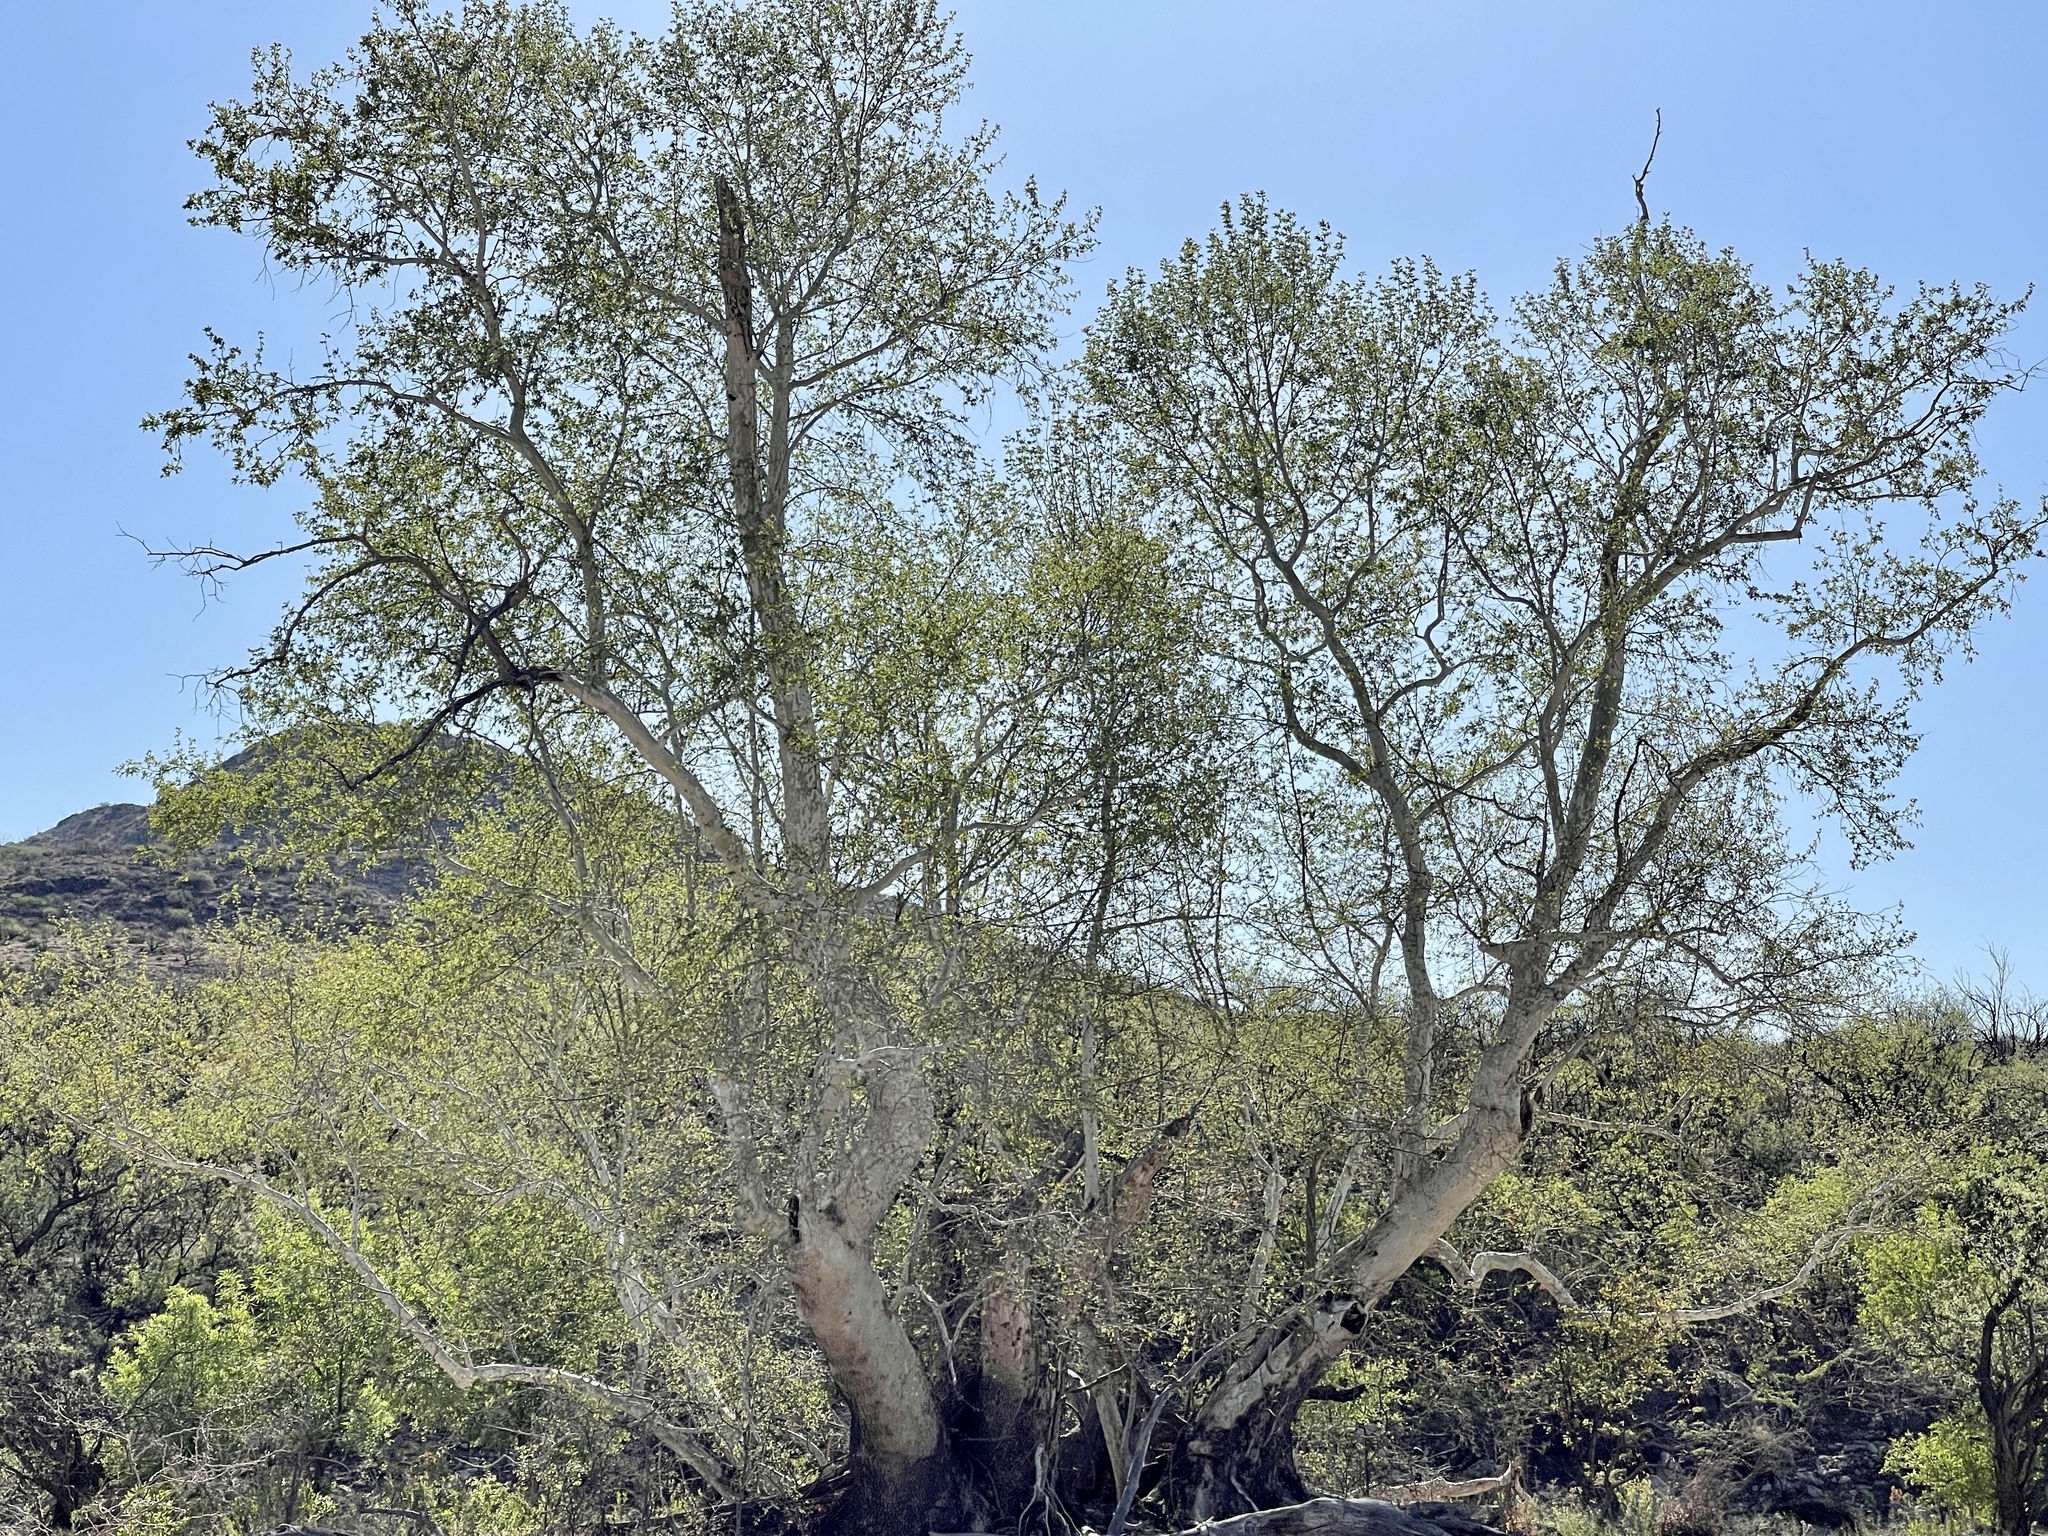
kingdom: Plantae
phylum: Tracheophyta
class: Magnoliopsida
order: Proteales
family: Platanaceae
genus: Platanus
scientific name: Platanus wrightii
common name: Arizona sycamore
